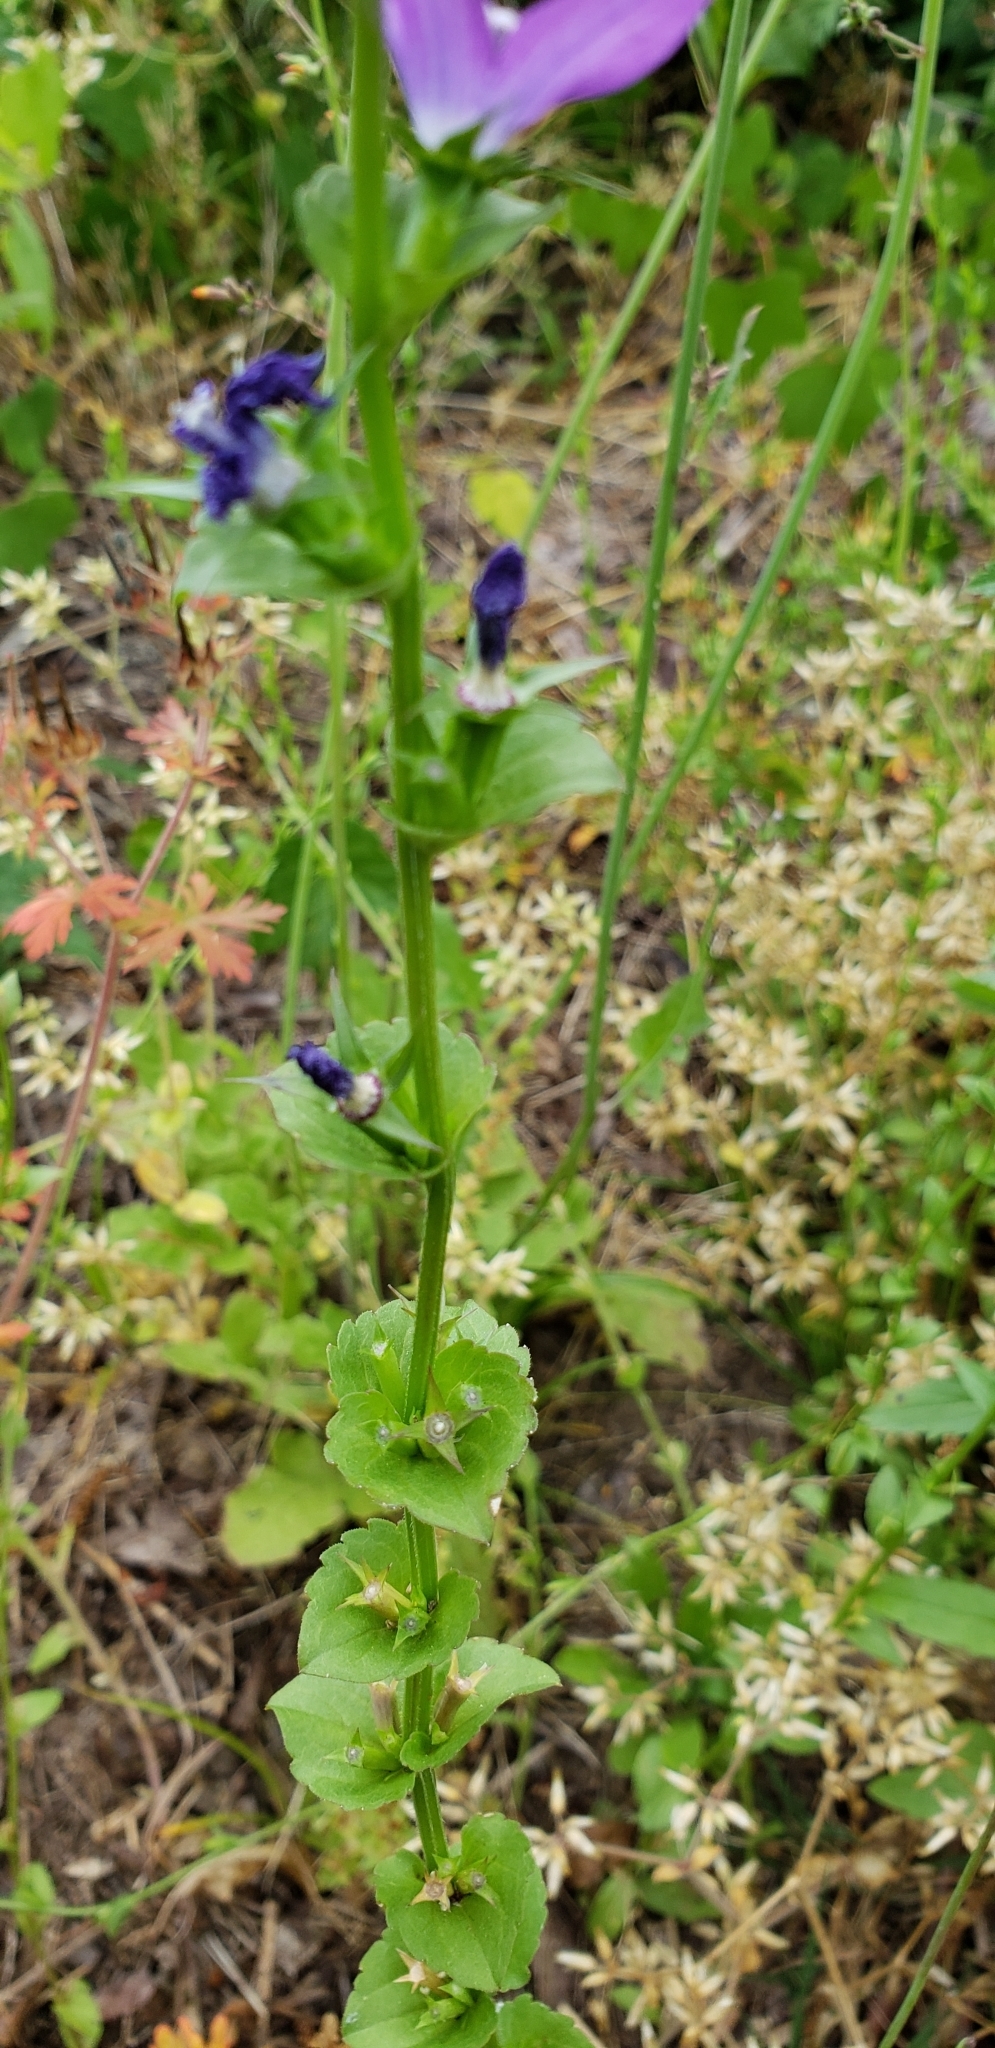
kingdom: Plantae
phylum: Tracheophyta
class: Magnoliopsida
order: Asterales
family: Campanulaceae
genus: Triodanis
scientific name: Triodanis perfoliata
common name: Clasping venus' looking-glass
